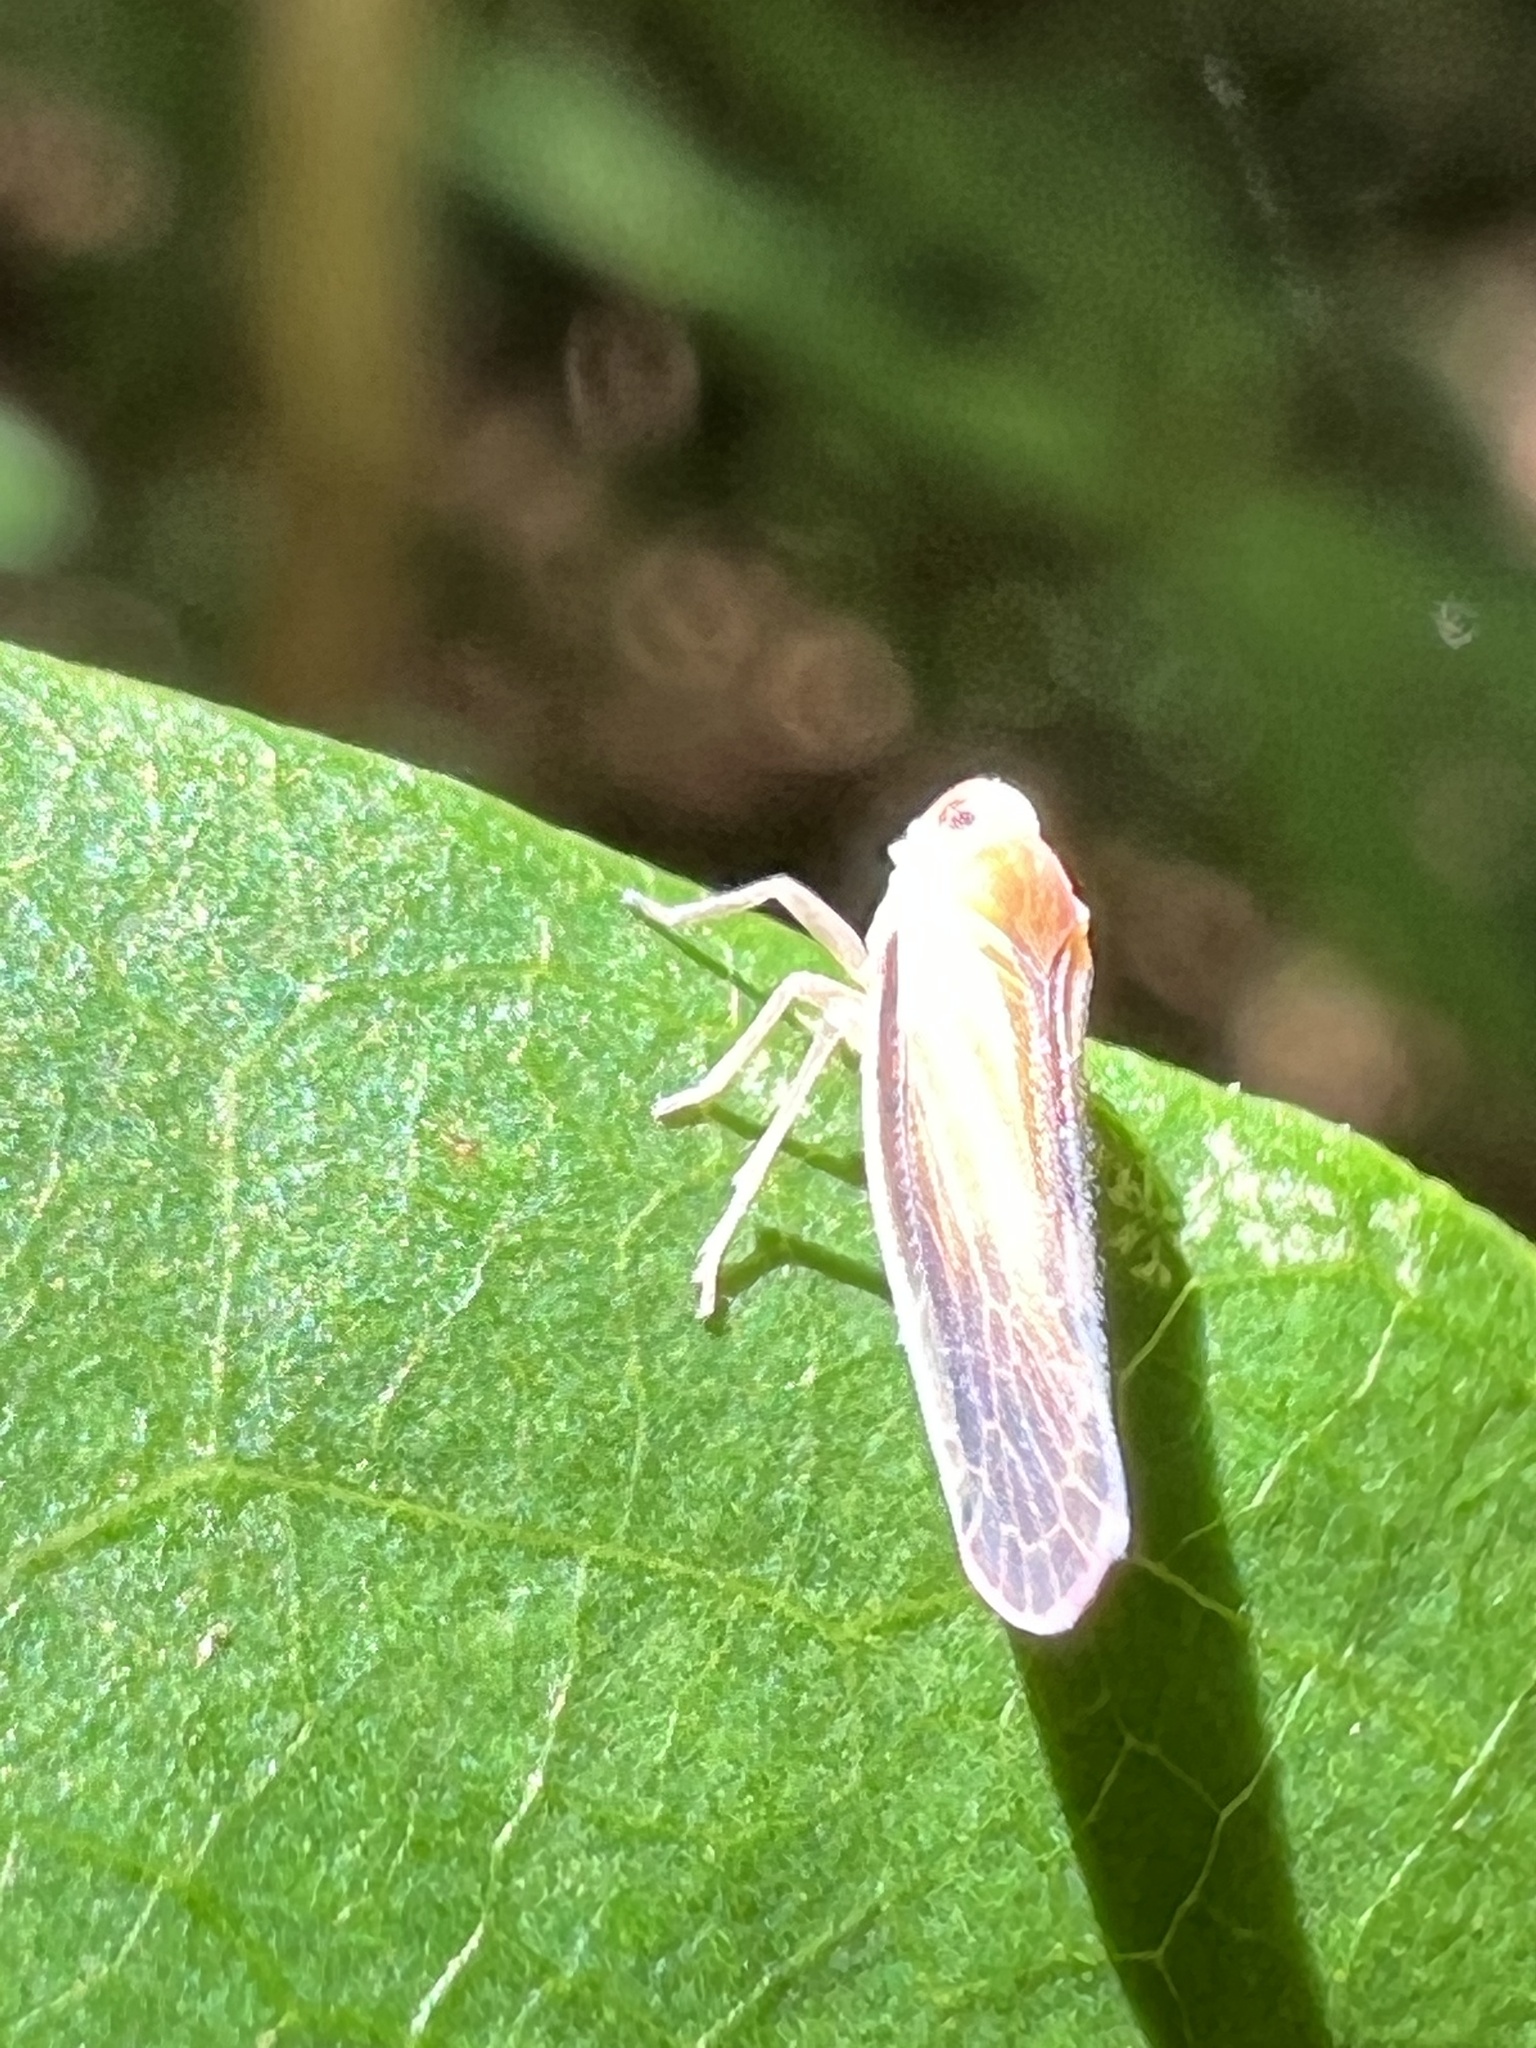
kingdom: Animalia
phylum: Arthropoda
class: Insecta
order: Hemiptera
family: Derbidae
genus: Omolicna
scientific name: Omolicna uhleri
